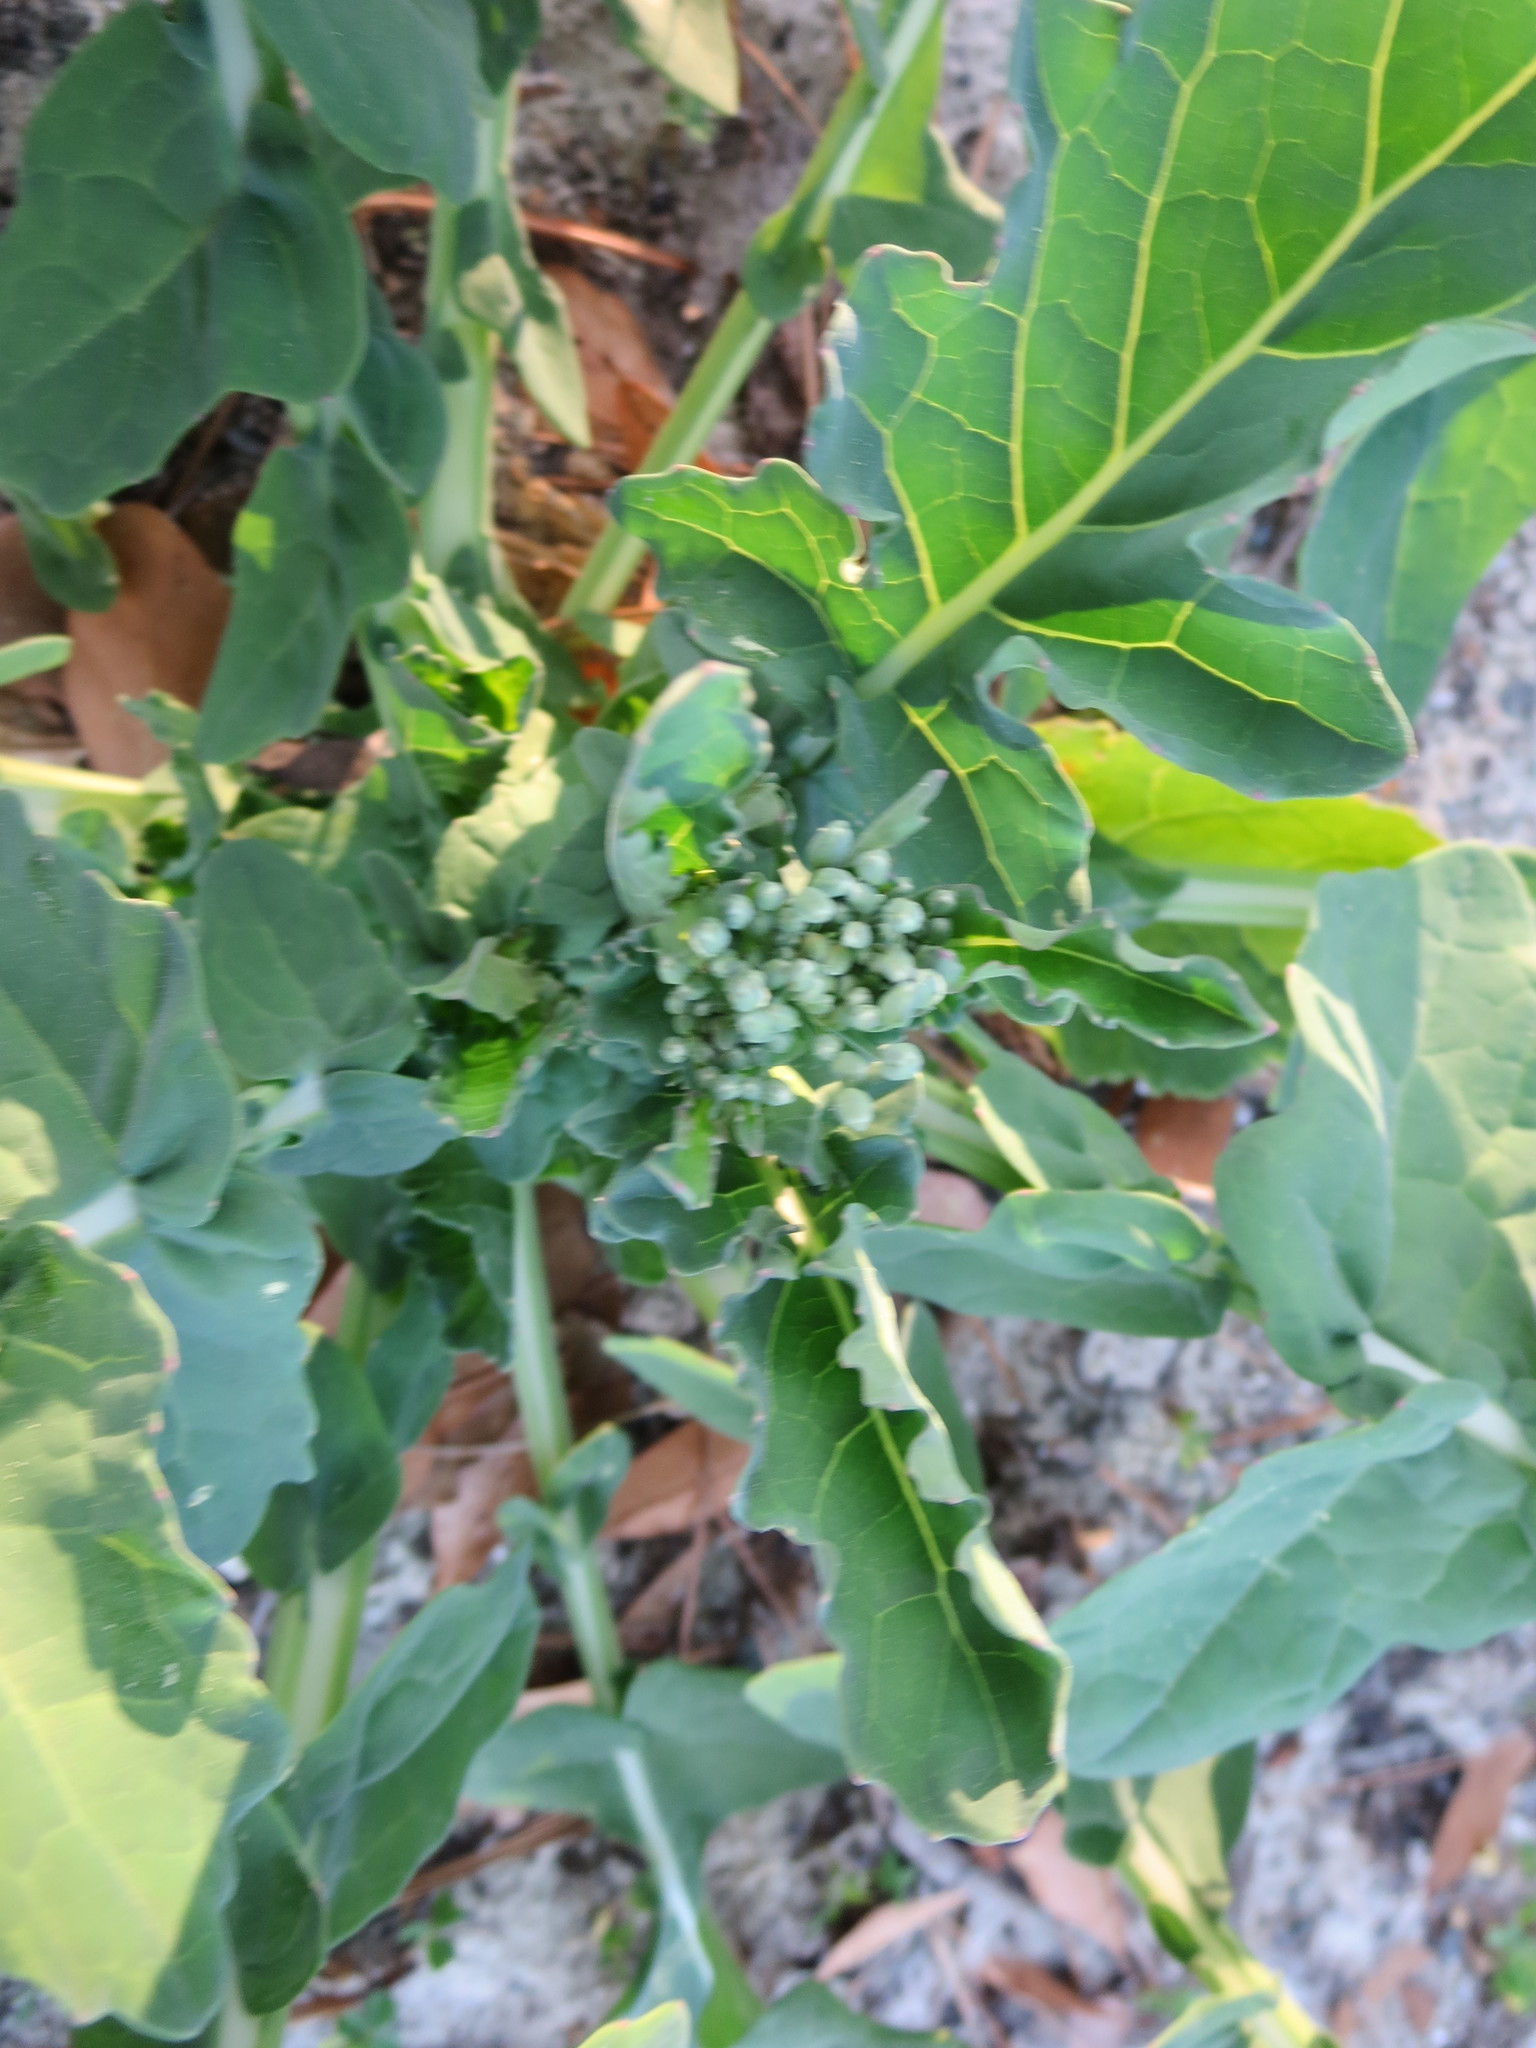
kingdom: Plantae
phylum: Tracheophyta
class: Magnoliopsida
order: Brassicales
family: Brassicaceae
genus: Brassica
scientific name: Brassica oleracea
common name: Cabbage
